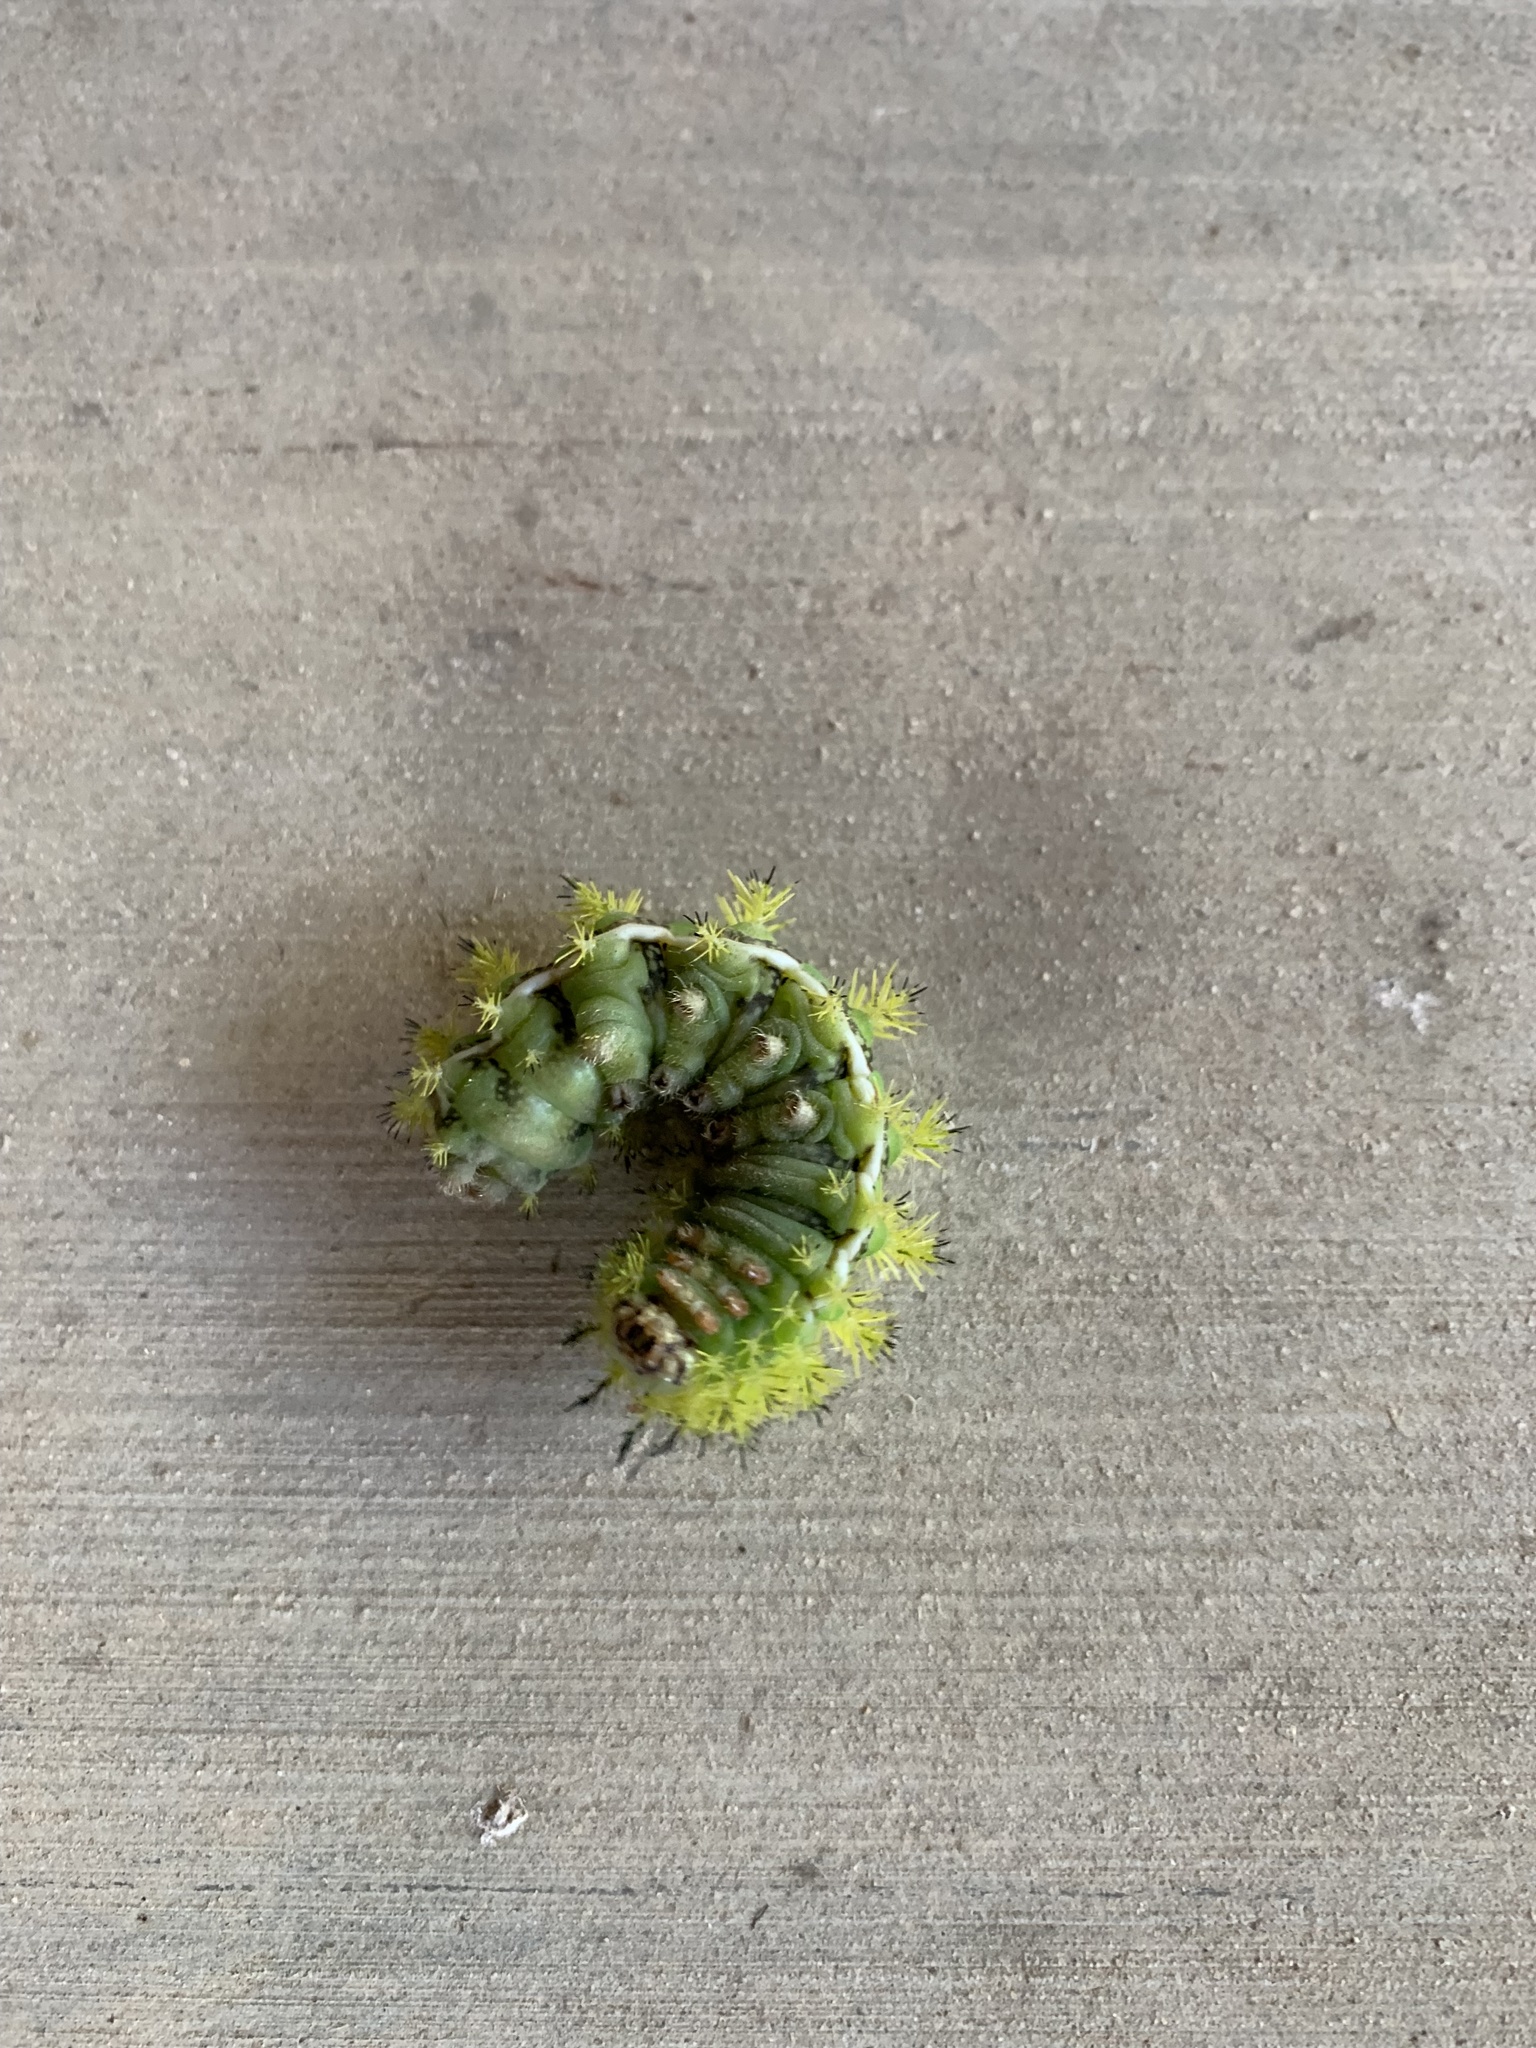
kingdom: Animalia
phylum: Arthropoda
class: Insecta
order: Lepidoptera
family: Saturniidae
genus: Automeris
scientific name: Automeris io
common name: Io moth
